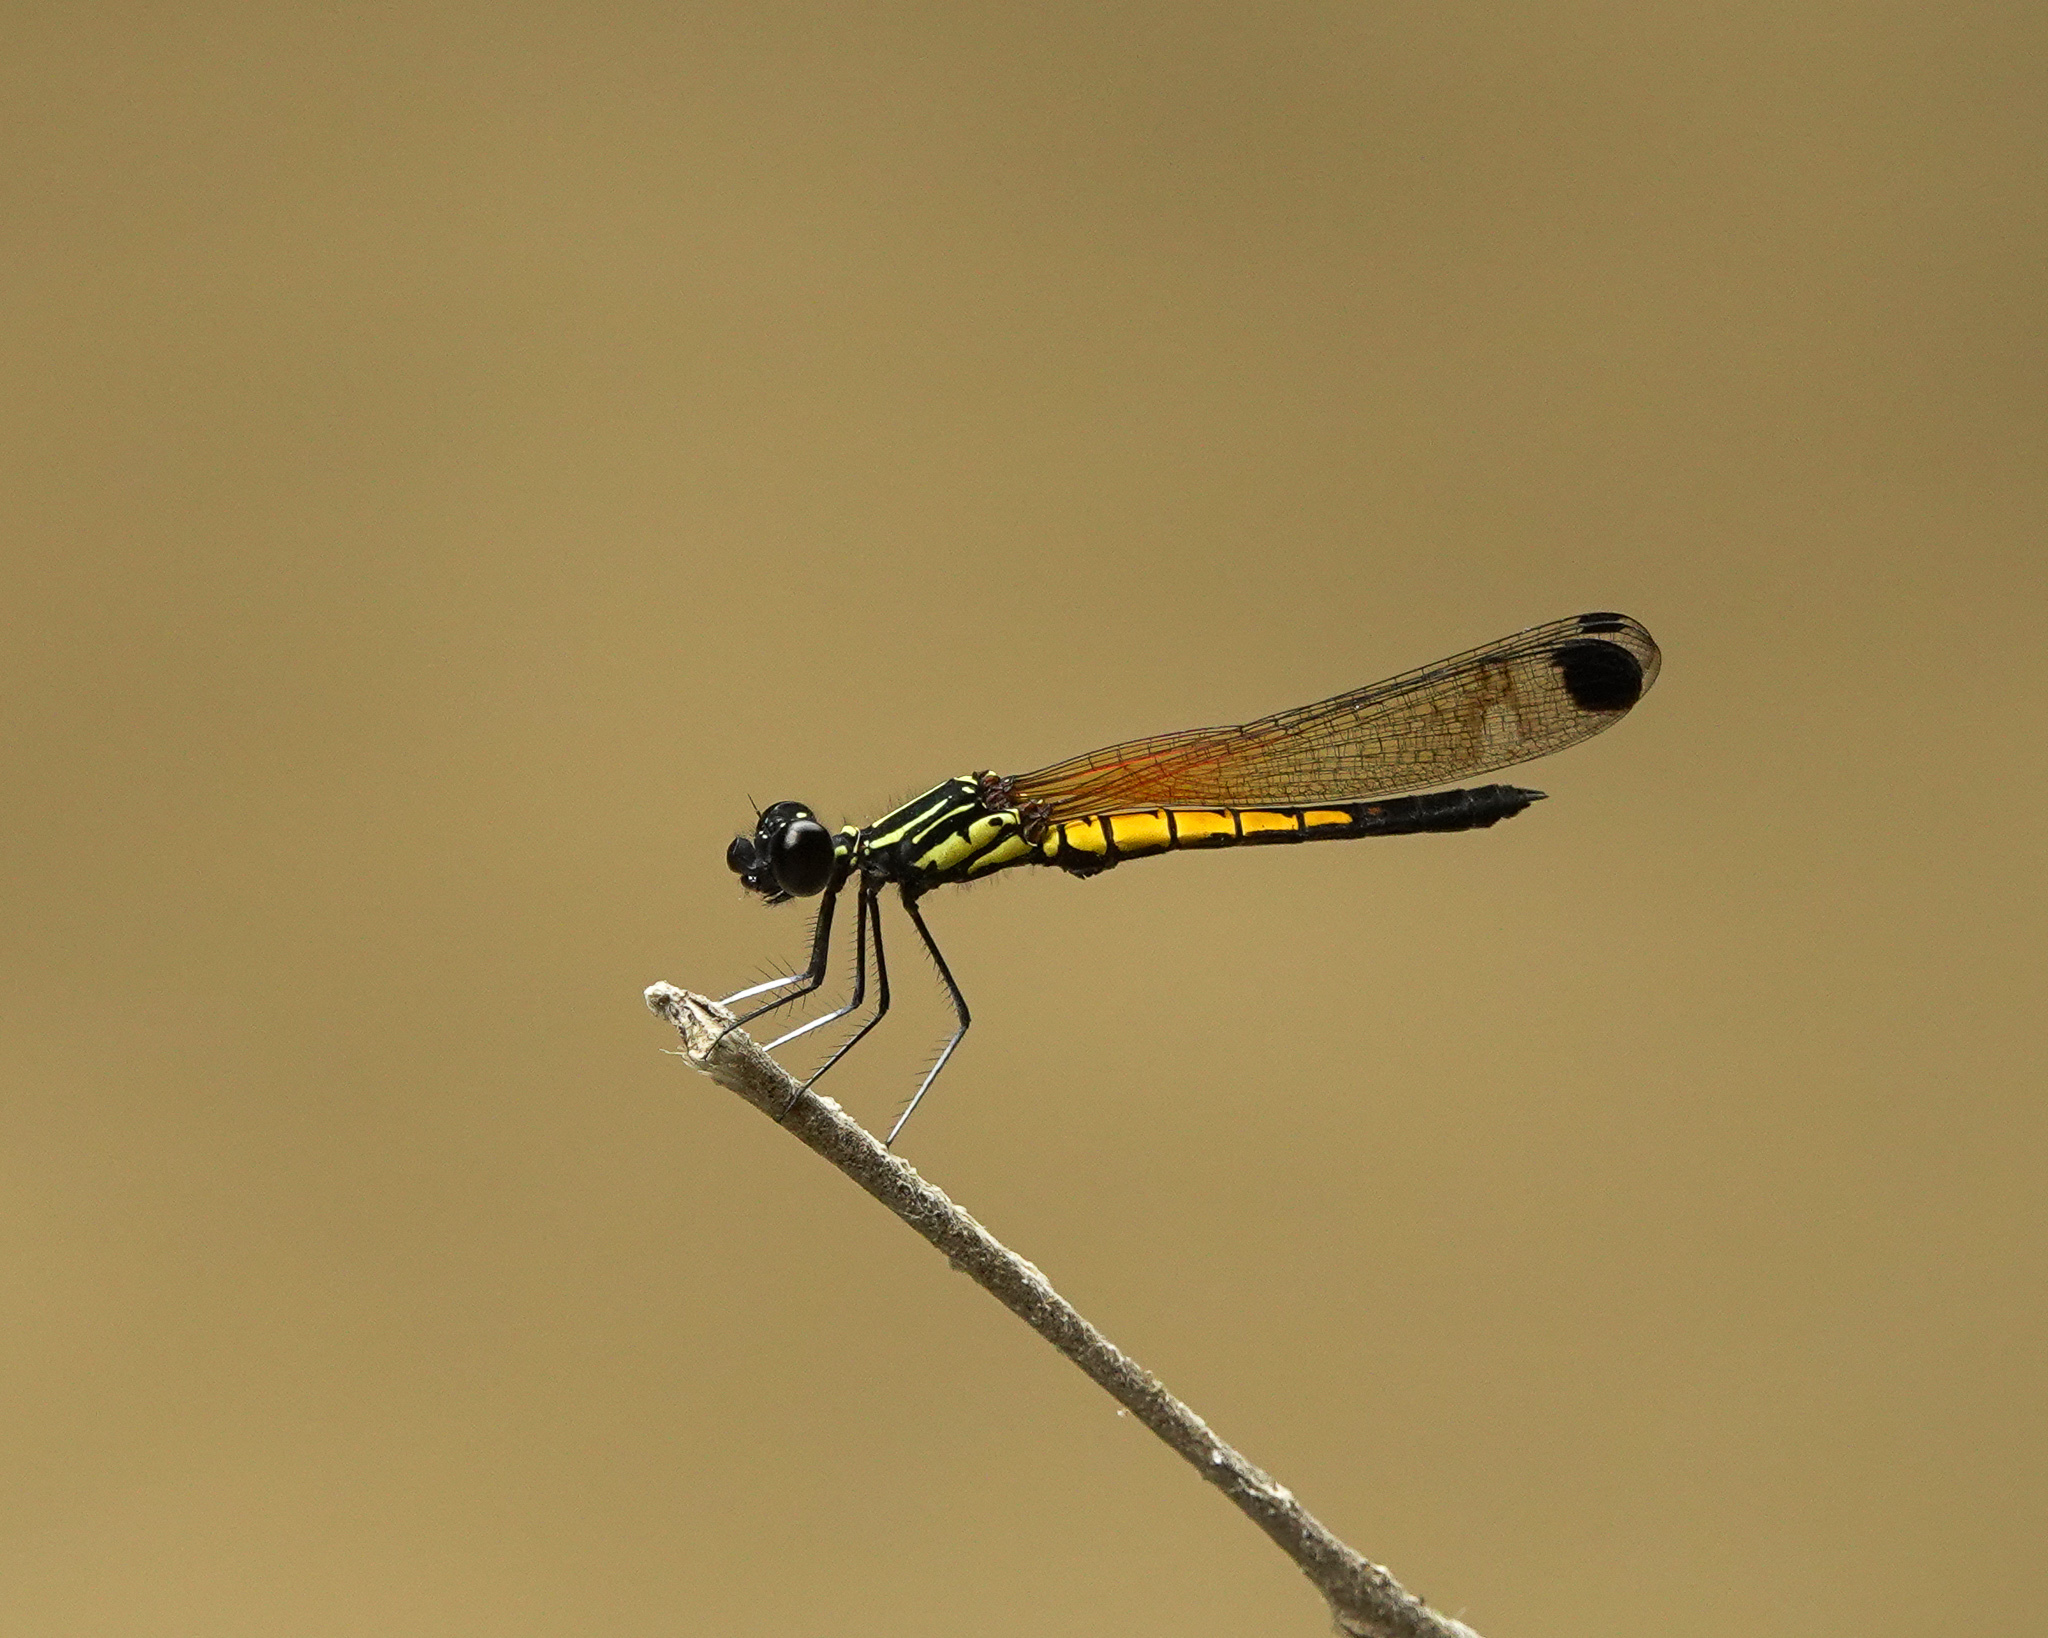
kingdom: Animalia
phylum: Arthropoda
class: Insecta
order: Odonata
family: Chlorocyphidae
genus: Libellago
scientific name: Libellago lineata
